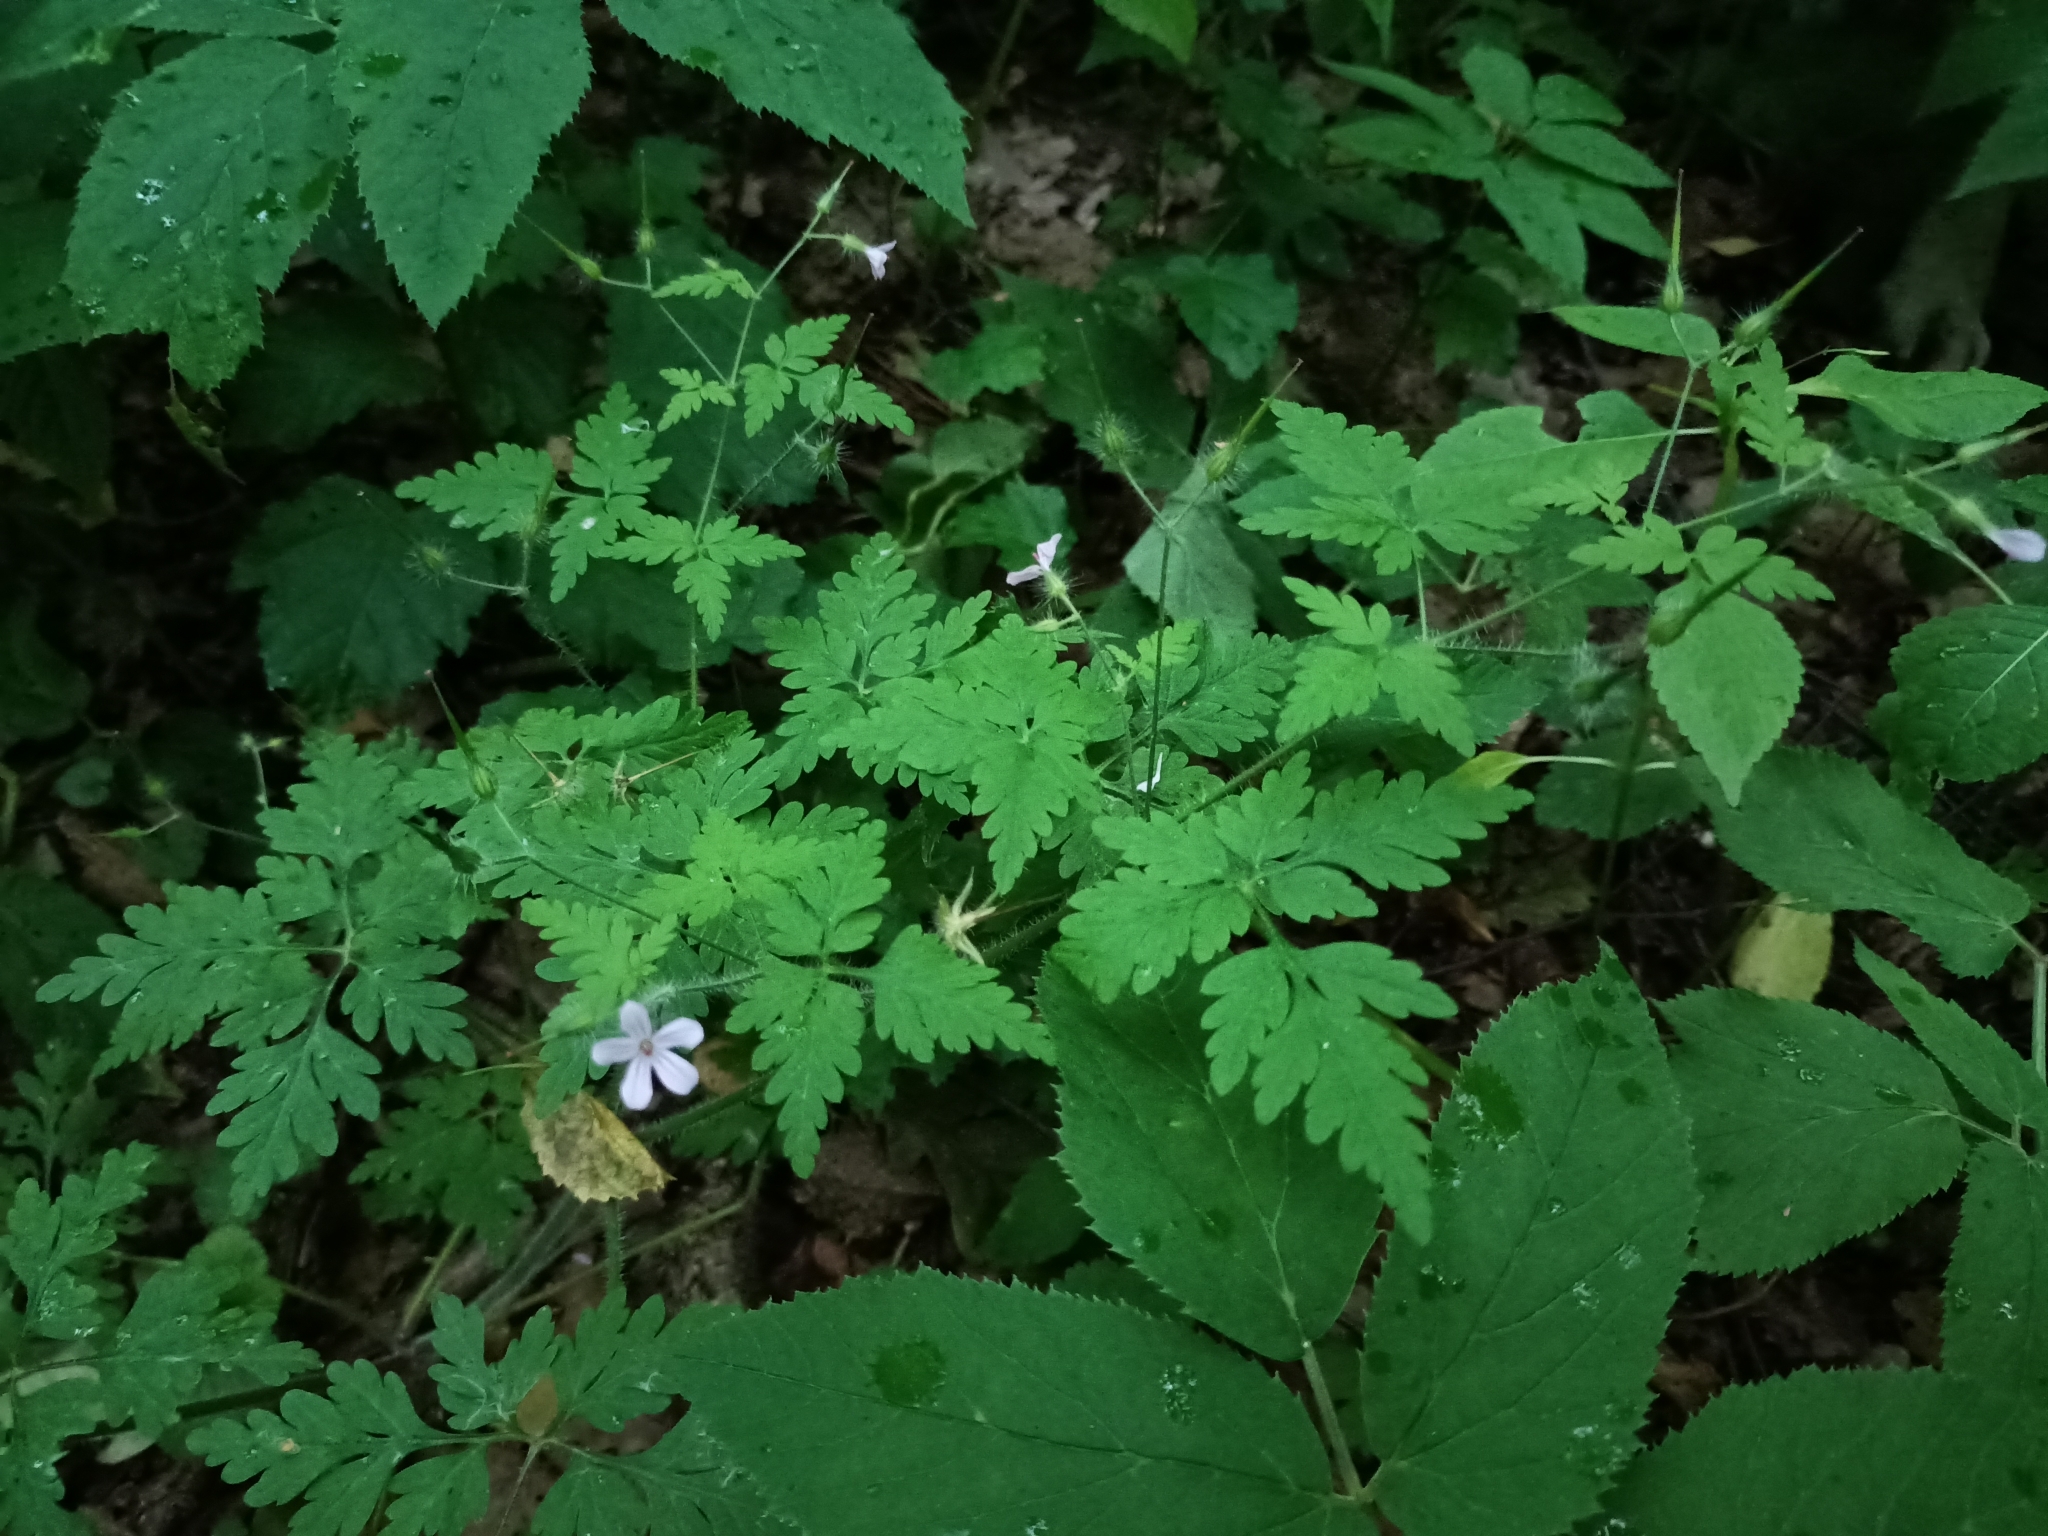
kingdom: Plantae
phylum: Tracheophyta
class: Magnoliopsida
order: Geraniales
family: Geraniaceae
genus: Geranium
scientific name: Geranium robertianum
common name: Herb-robert
